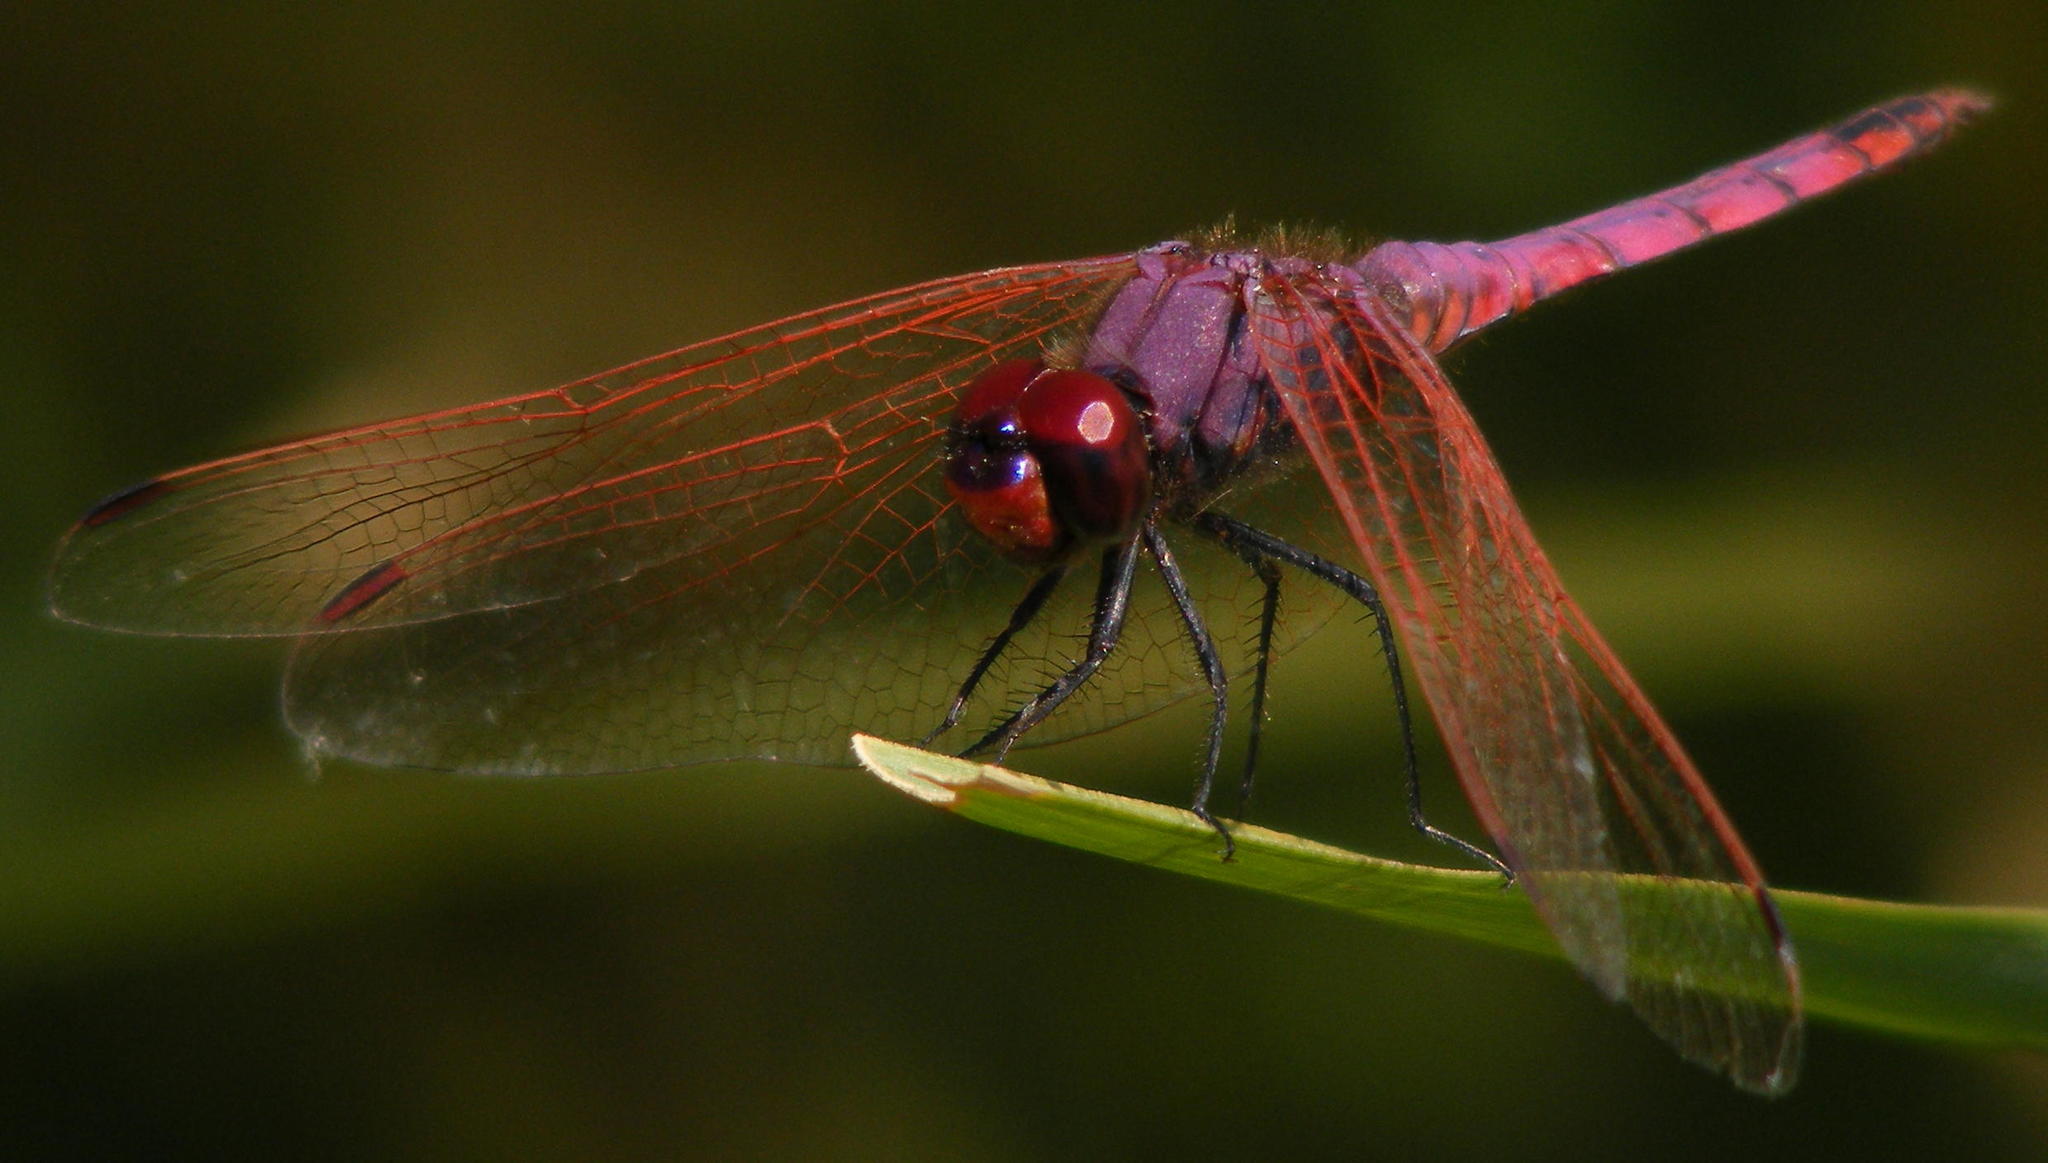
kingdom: Animalia
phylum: Arthropoda
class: Insecta
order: Odonata
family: Libellulidae
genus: Trithemis
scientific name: Trithemis annulata
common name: Violet dropwing
